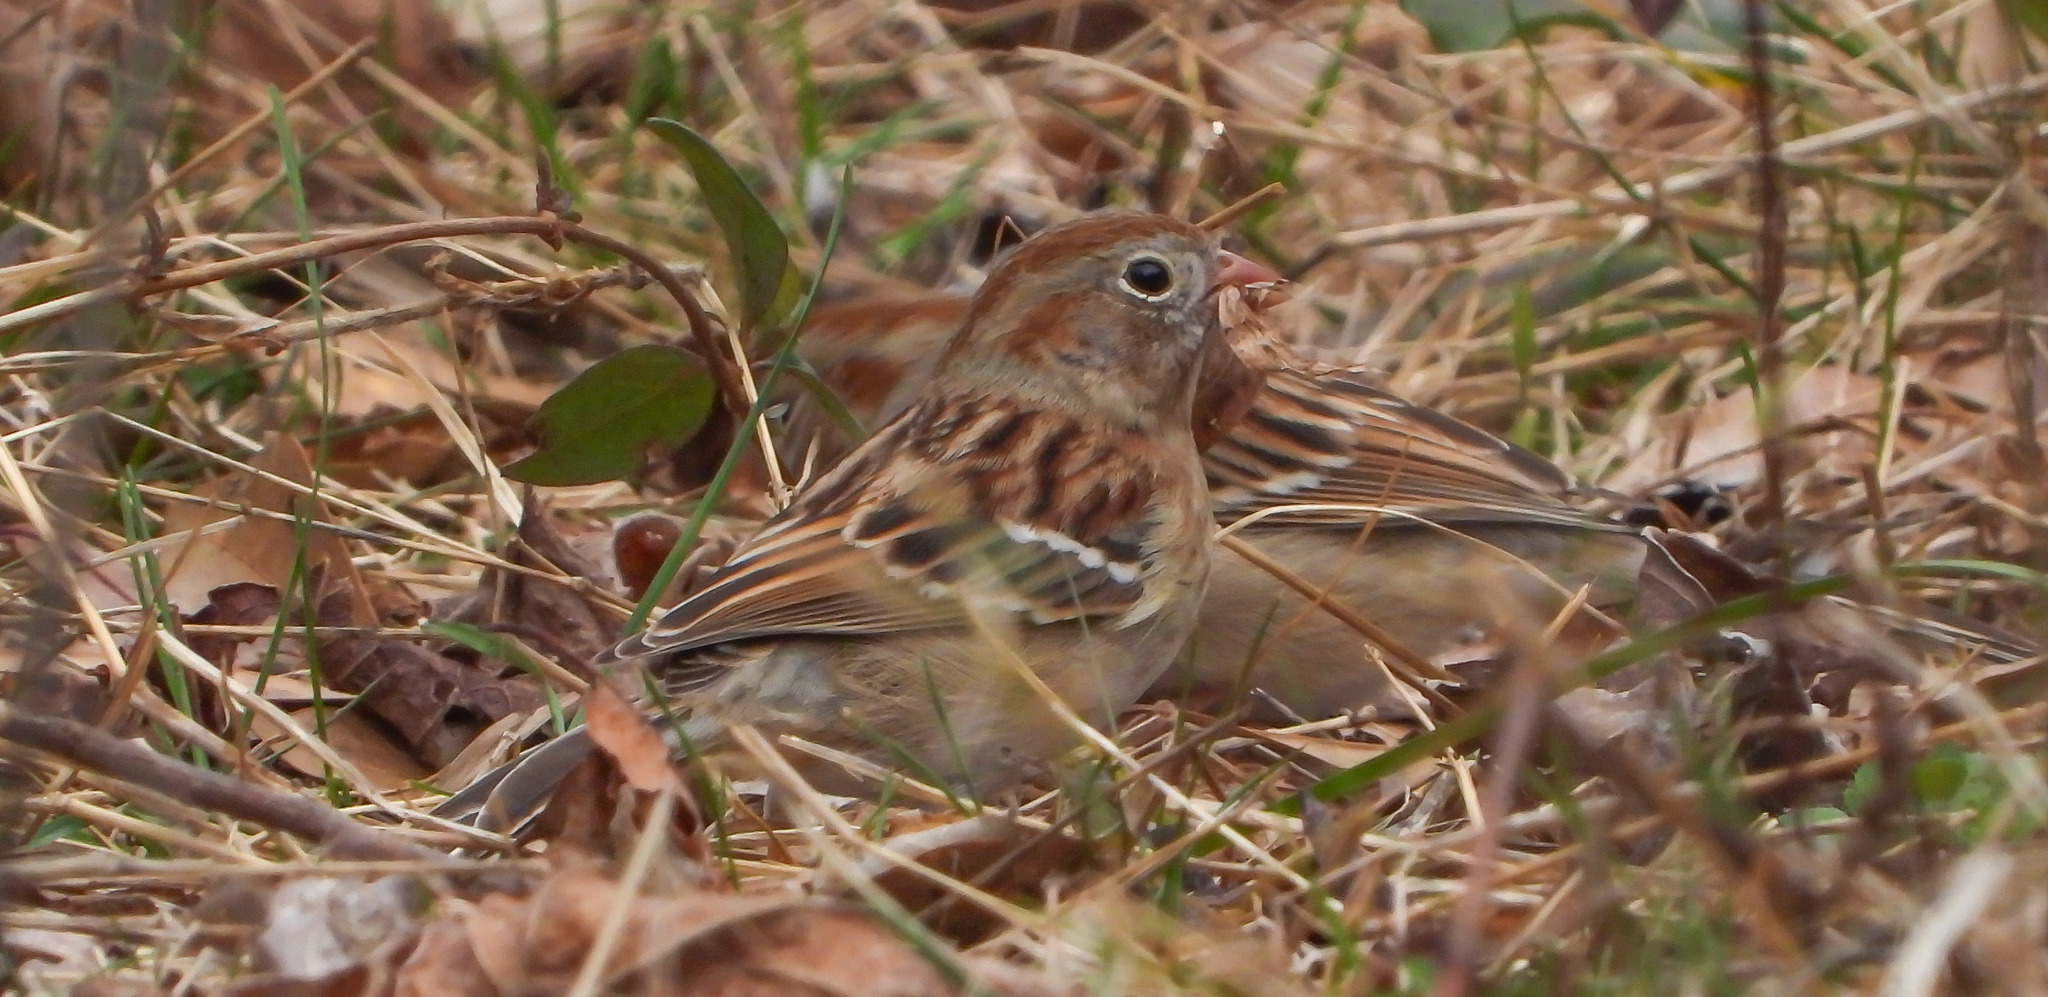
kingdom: Animalia
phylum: Chordata
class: Aves
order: Passeriformes
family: Passerellidae
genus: Spizella
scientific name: Spizella pusilla
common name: Field sparrow
